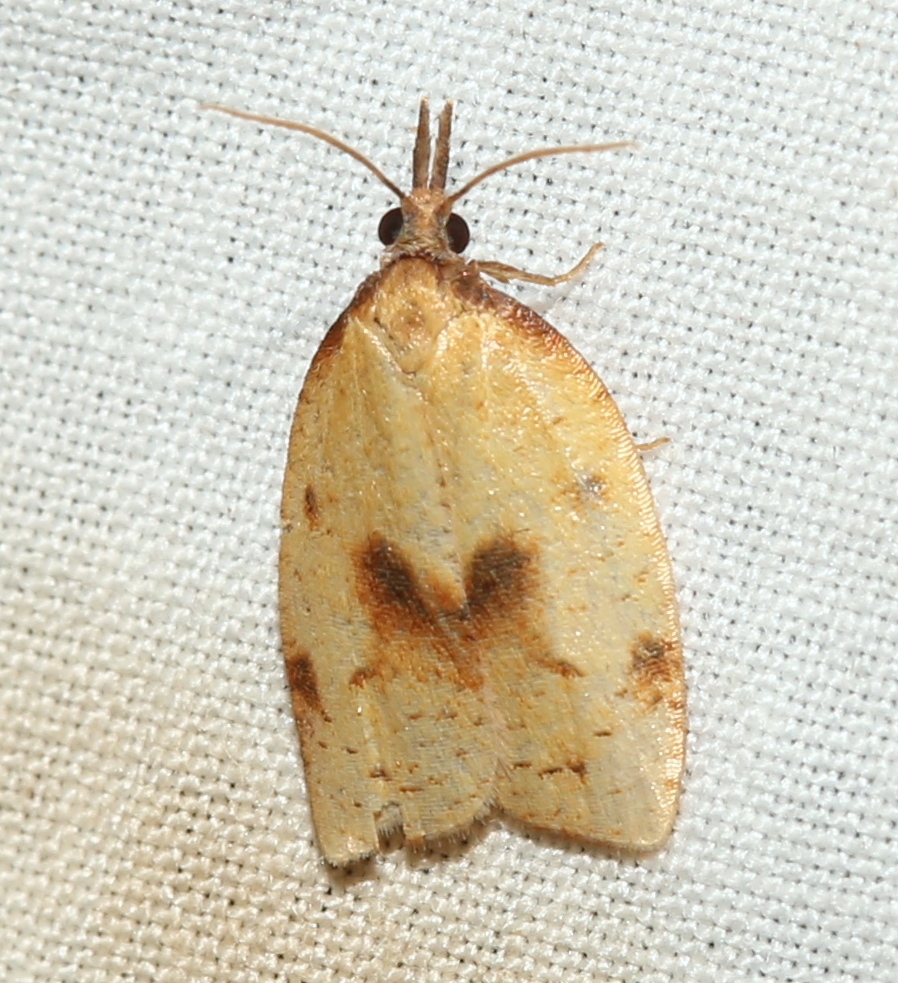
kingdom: Animalia
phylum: Arthropoda
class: Insecta
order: Lepidoptera
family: Tortricidae
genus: Sparganothis
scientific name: Sparganothis xanthoides
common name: Mosaic sparganothis moth
